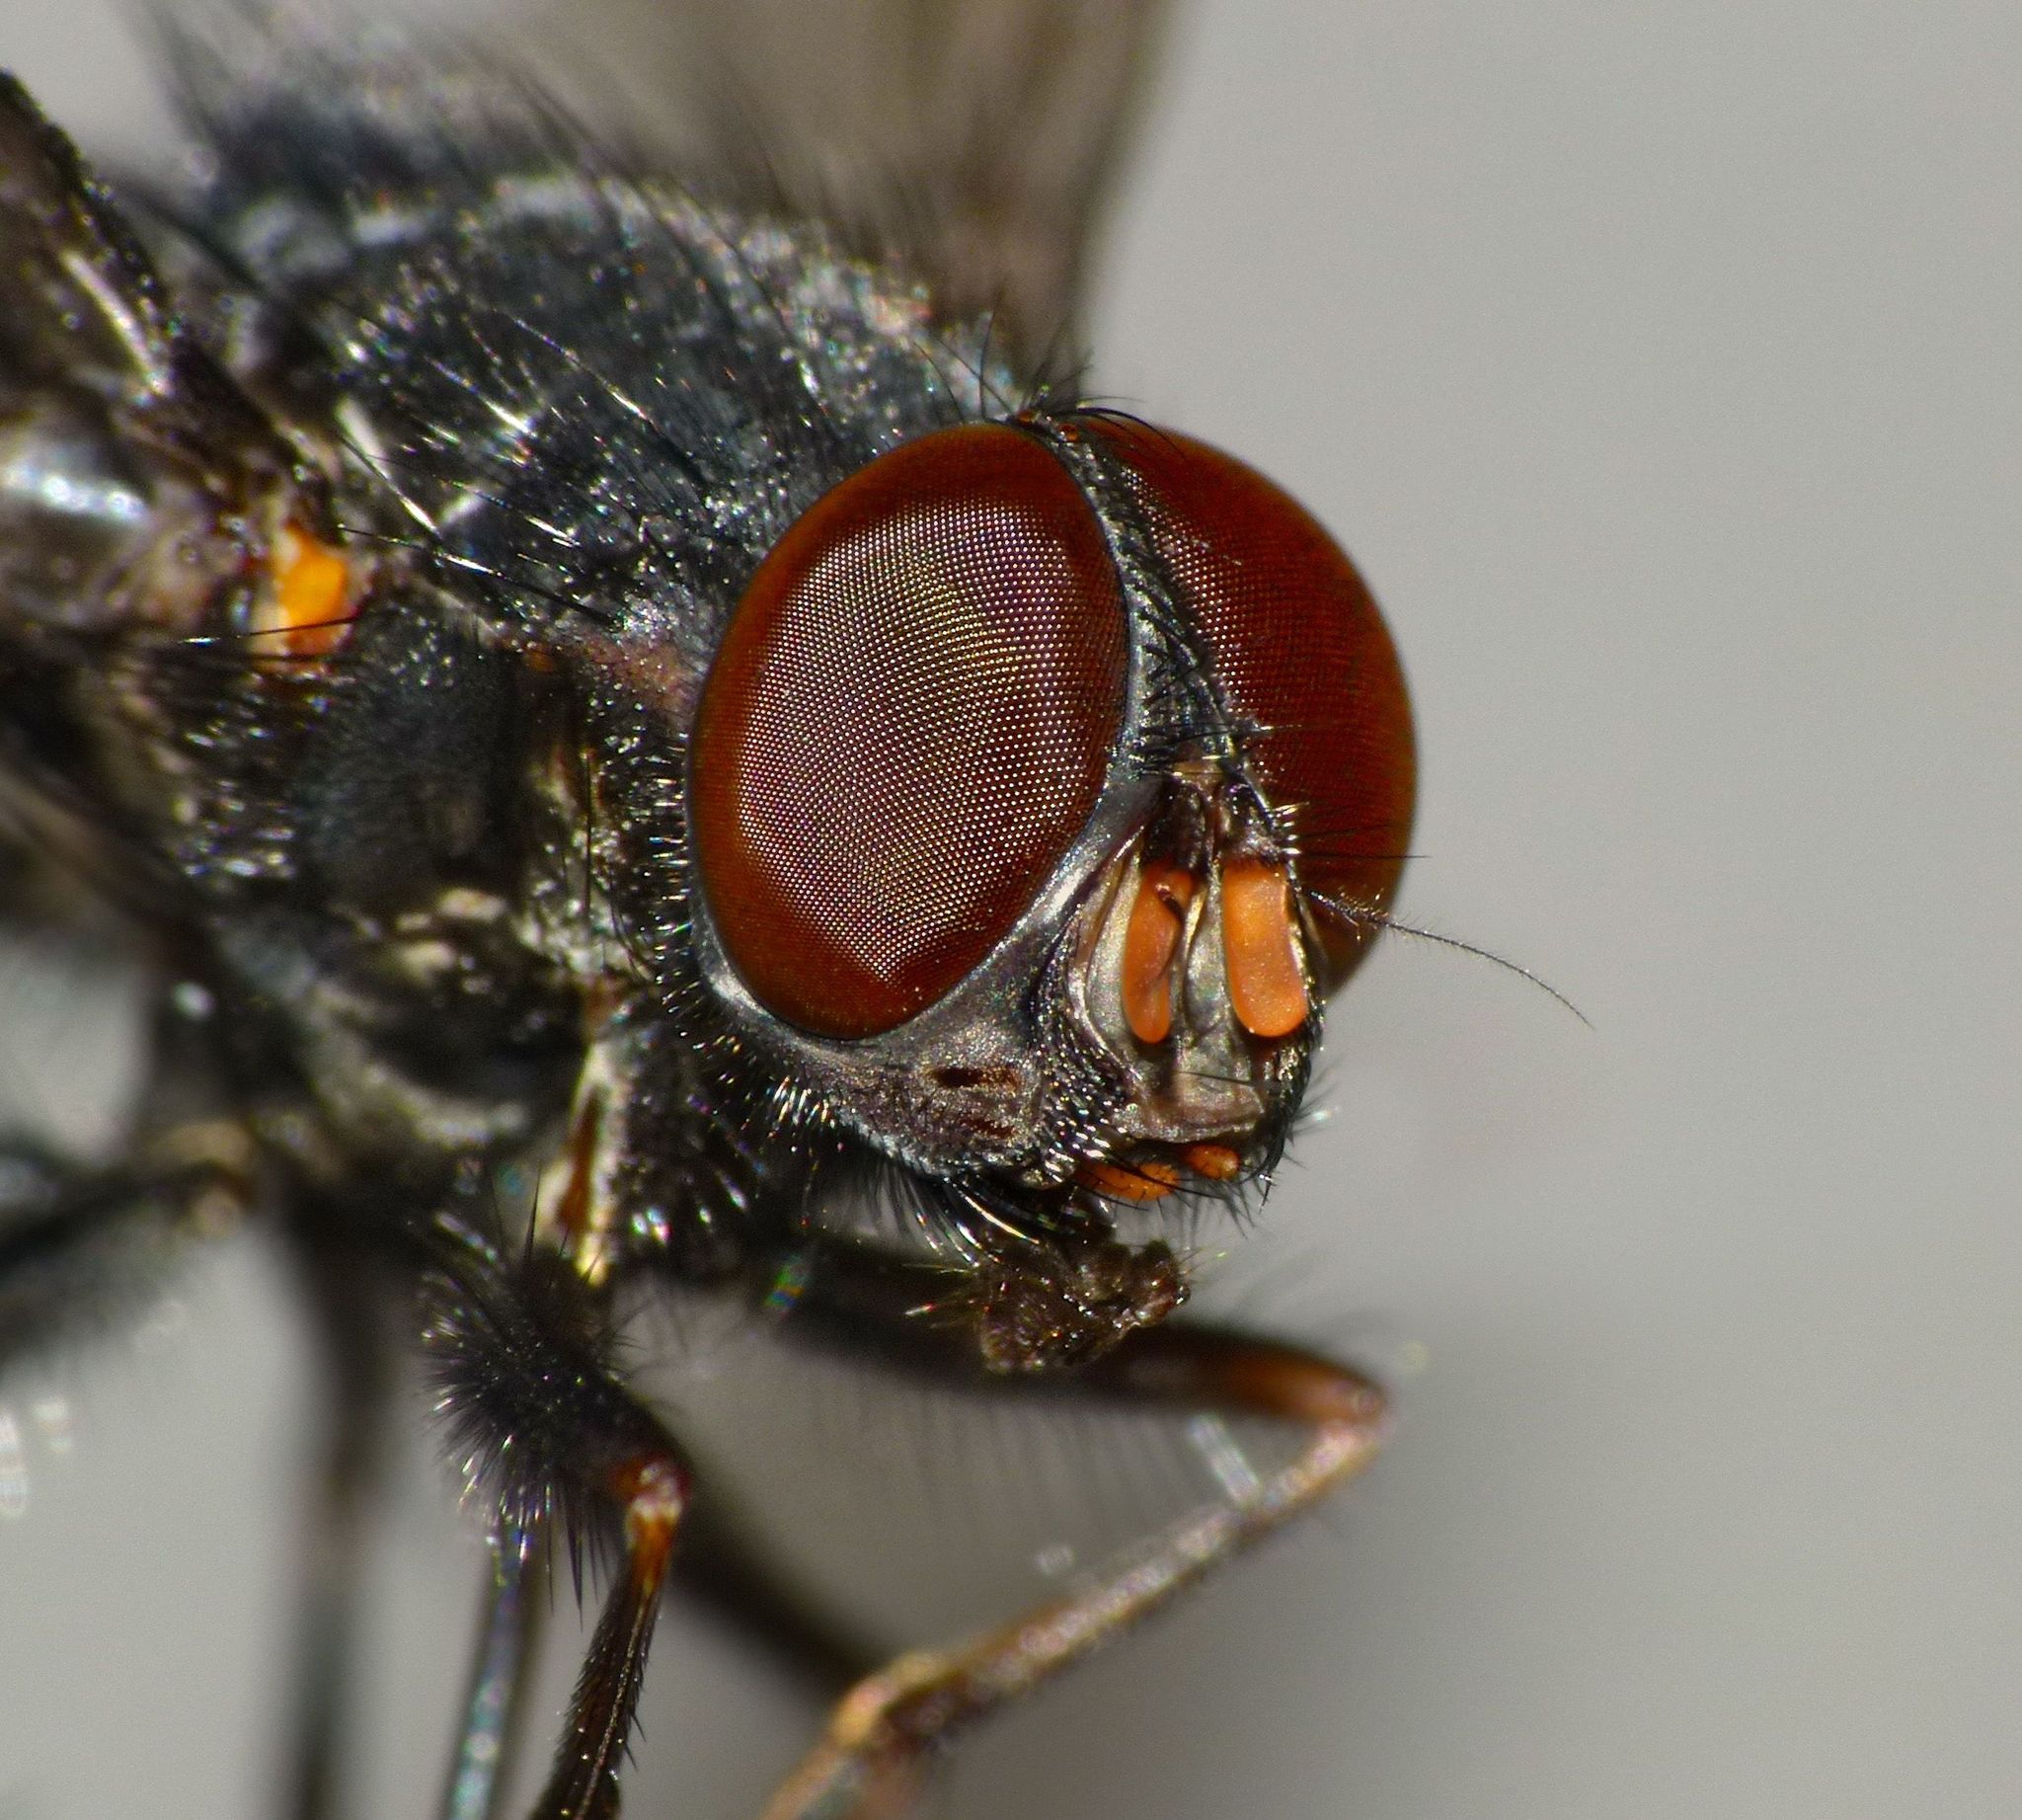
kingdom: Animalia
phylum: Arthropoda
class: Insecta
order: Diptera
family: Muscidae
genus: Calliphoroides
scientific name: Calliphoroides antennatis
